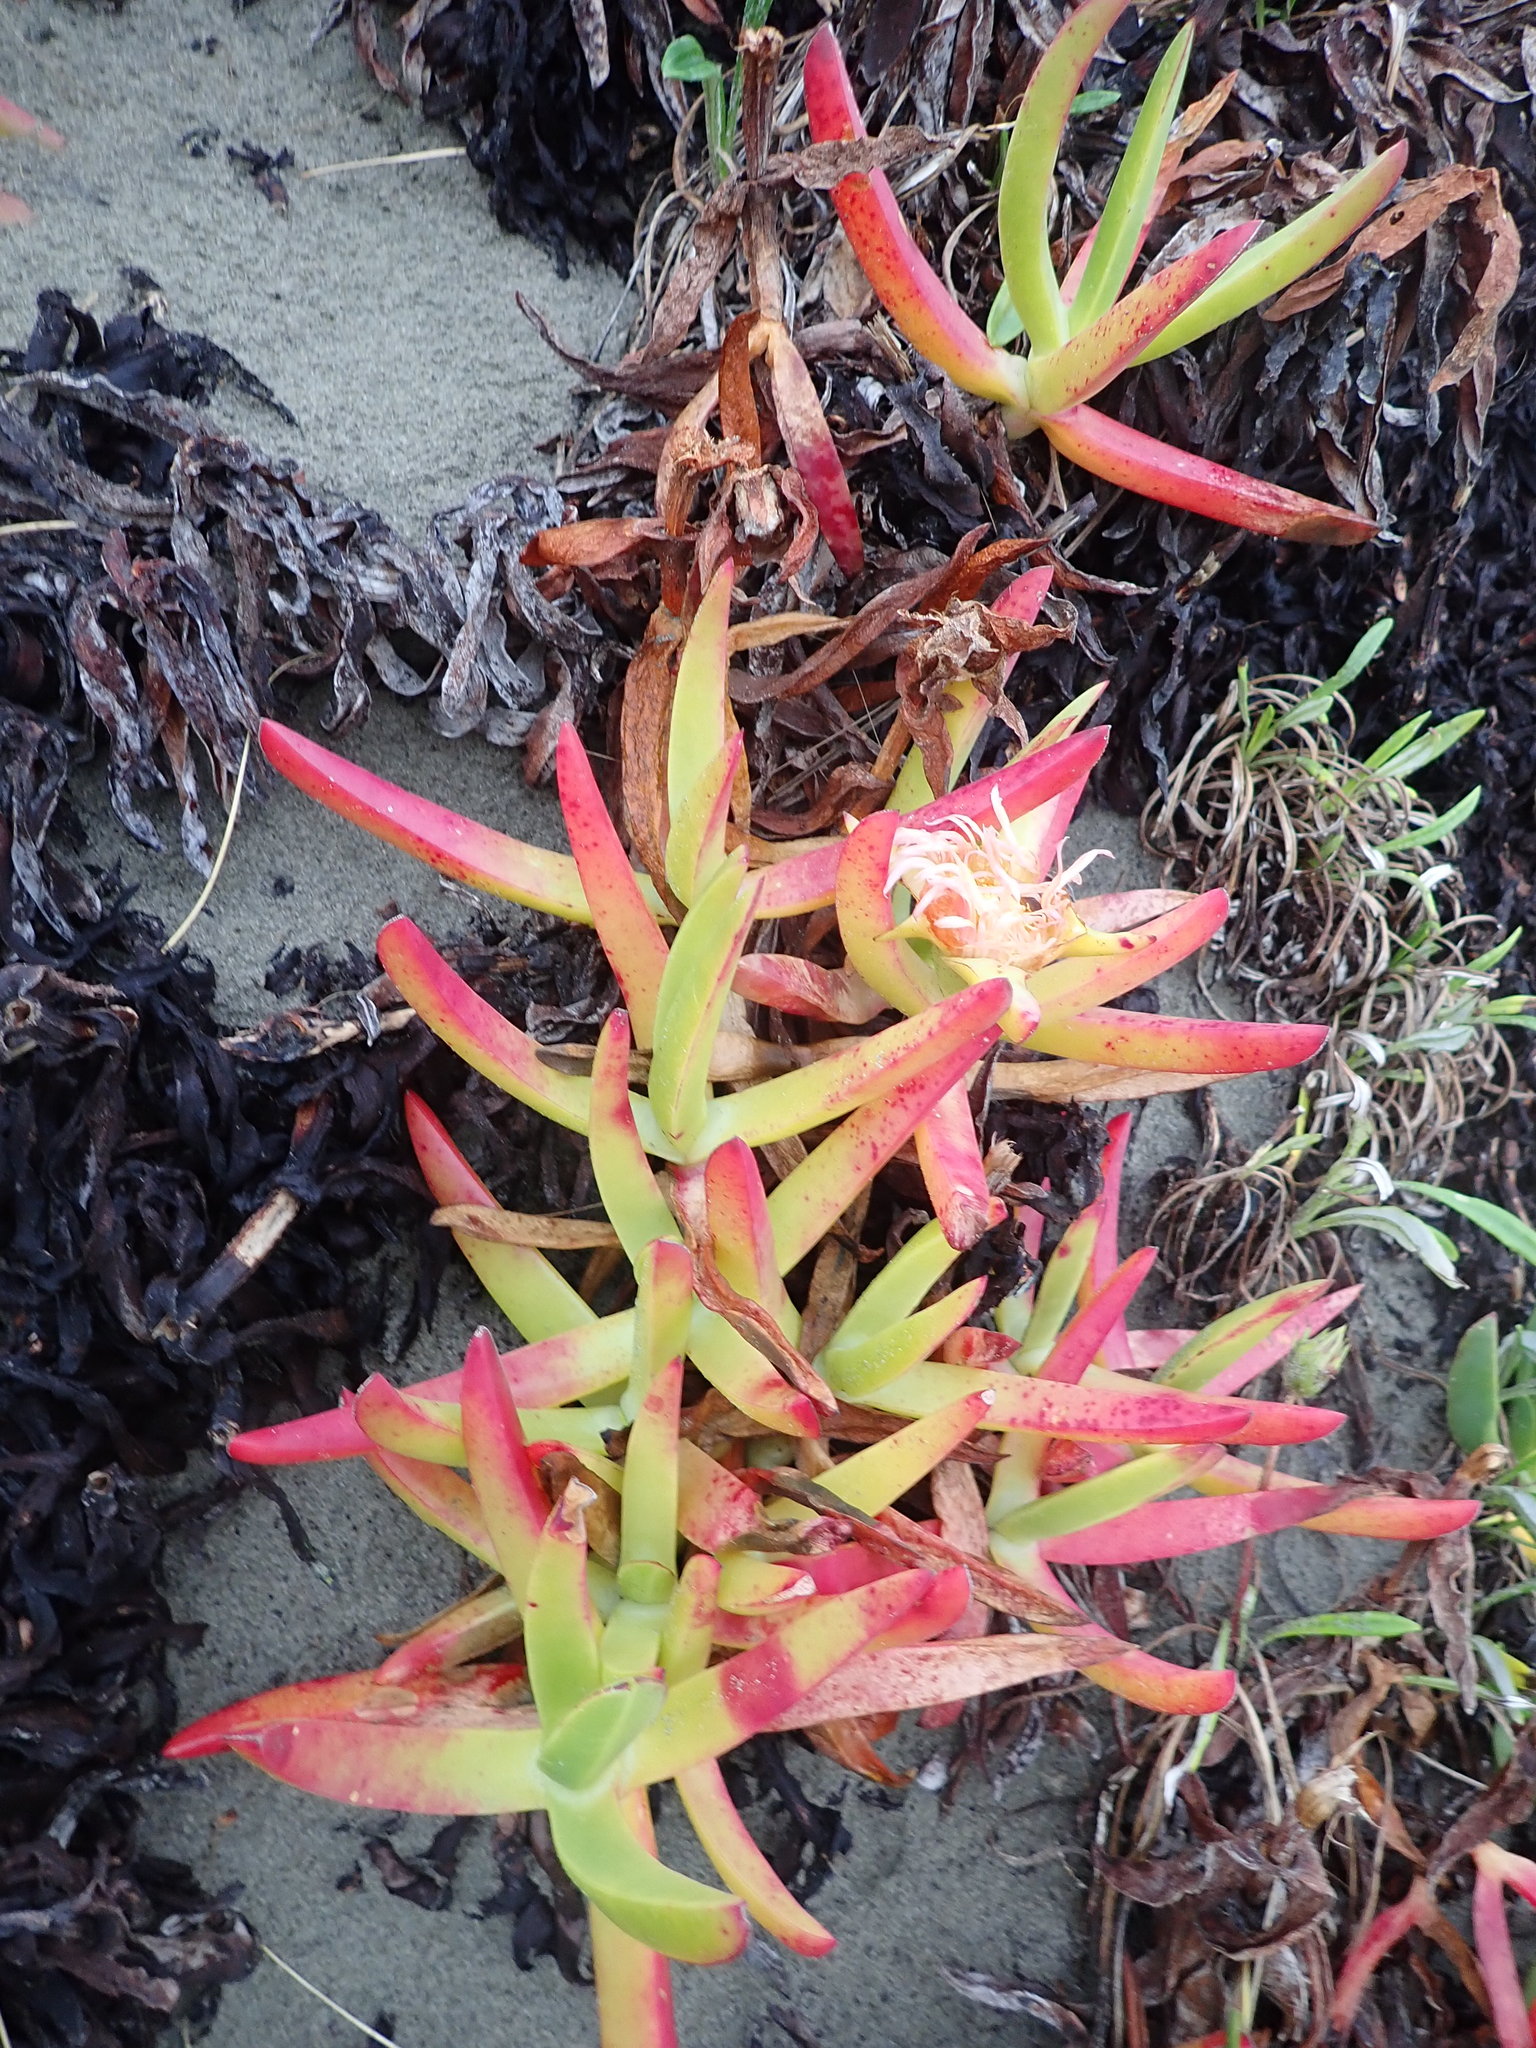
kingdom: Plantae
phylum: Tracheophyta
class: Magnoliopsida
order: Caryophyllales
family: Aizoaceae
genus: Carpobrotus
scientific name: Carpobrotus edulis
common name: Hottentot-fig
